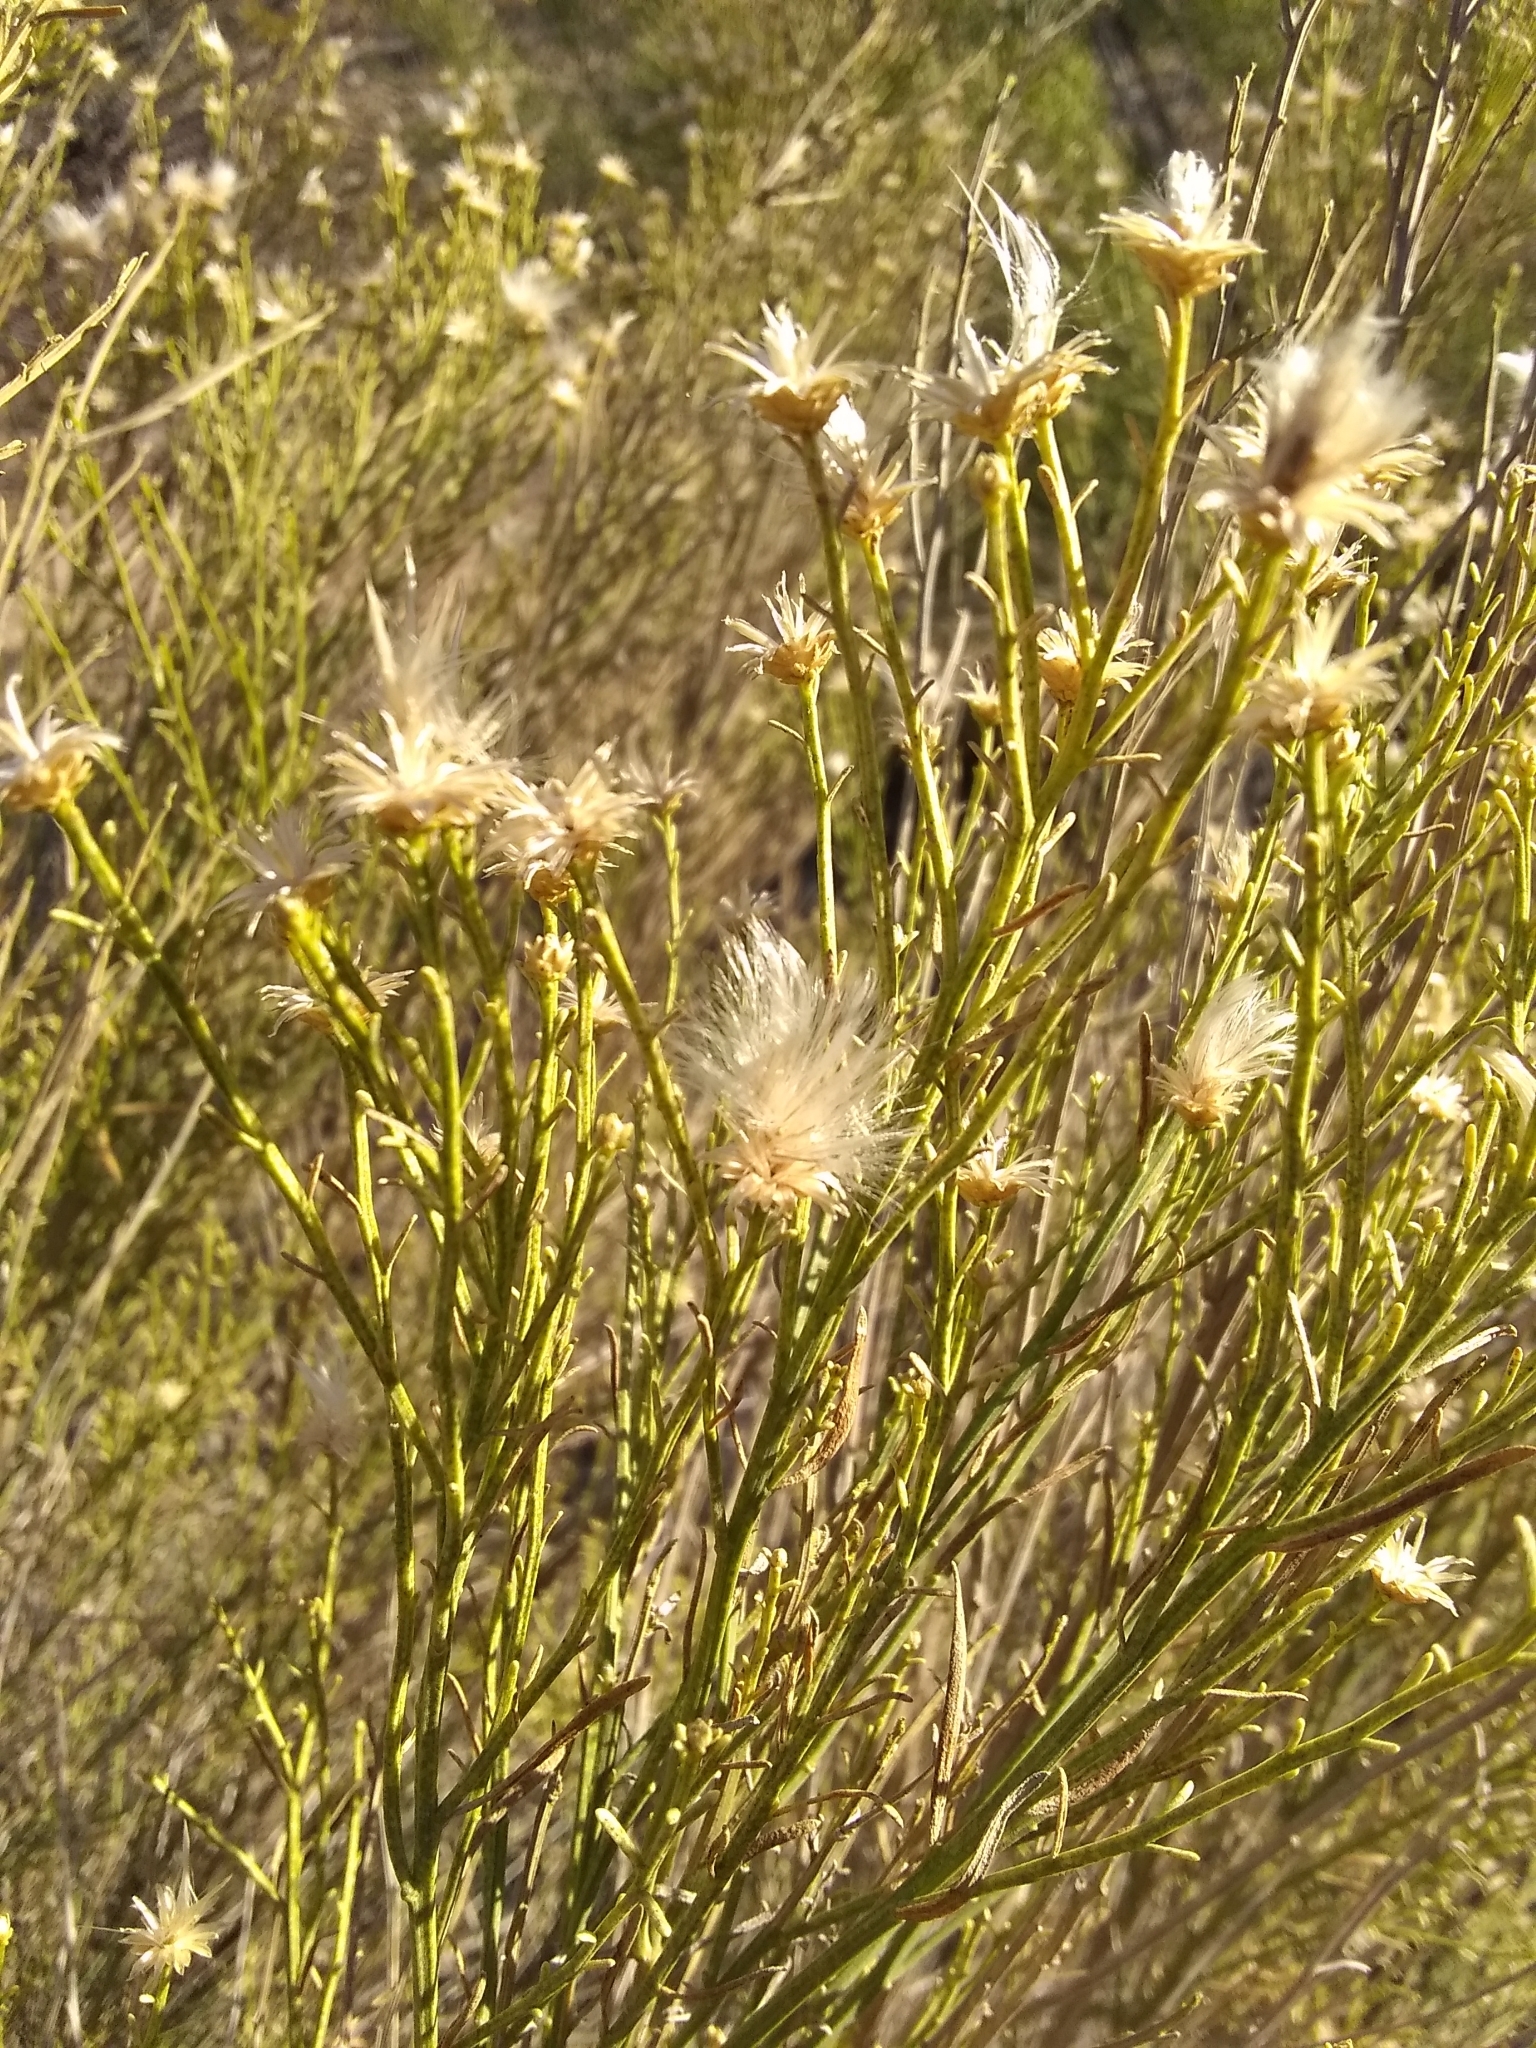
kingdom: Plantae
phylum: Tracheophyta
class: Magnoliopsida
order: Asterales
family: Asteraceae
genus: Baccharis
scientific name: Baccharis sarothroides
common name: Desert-broom
